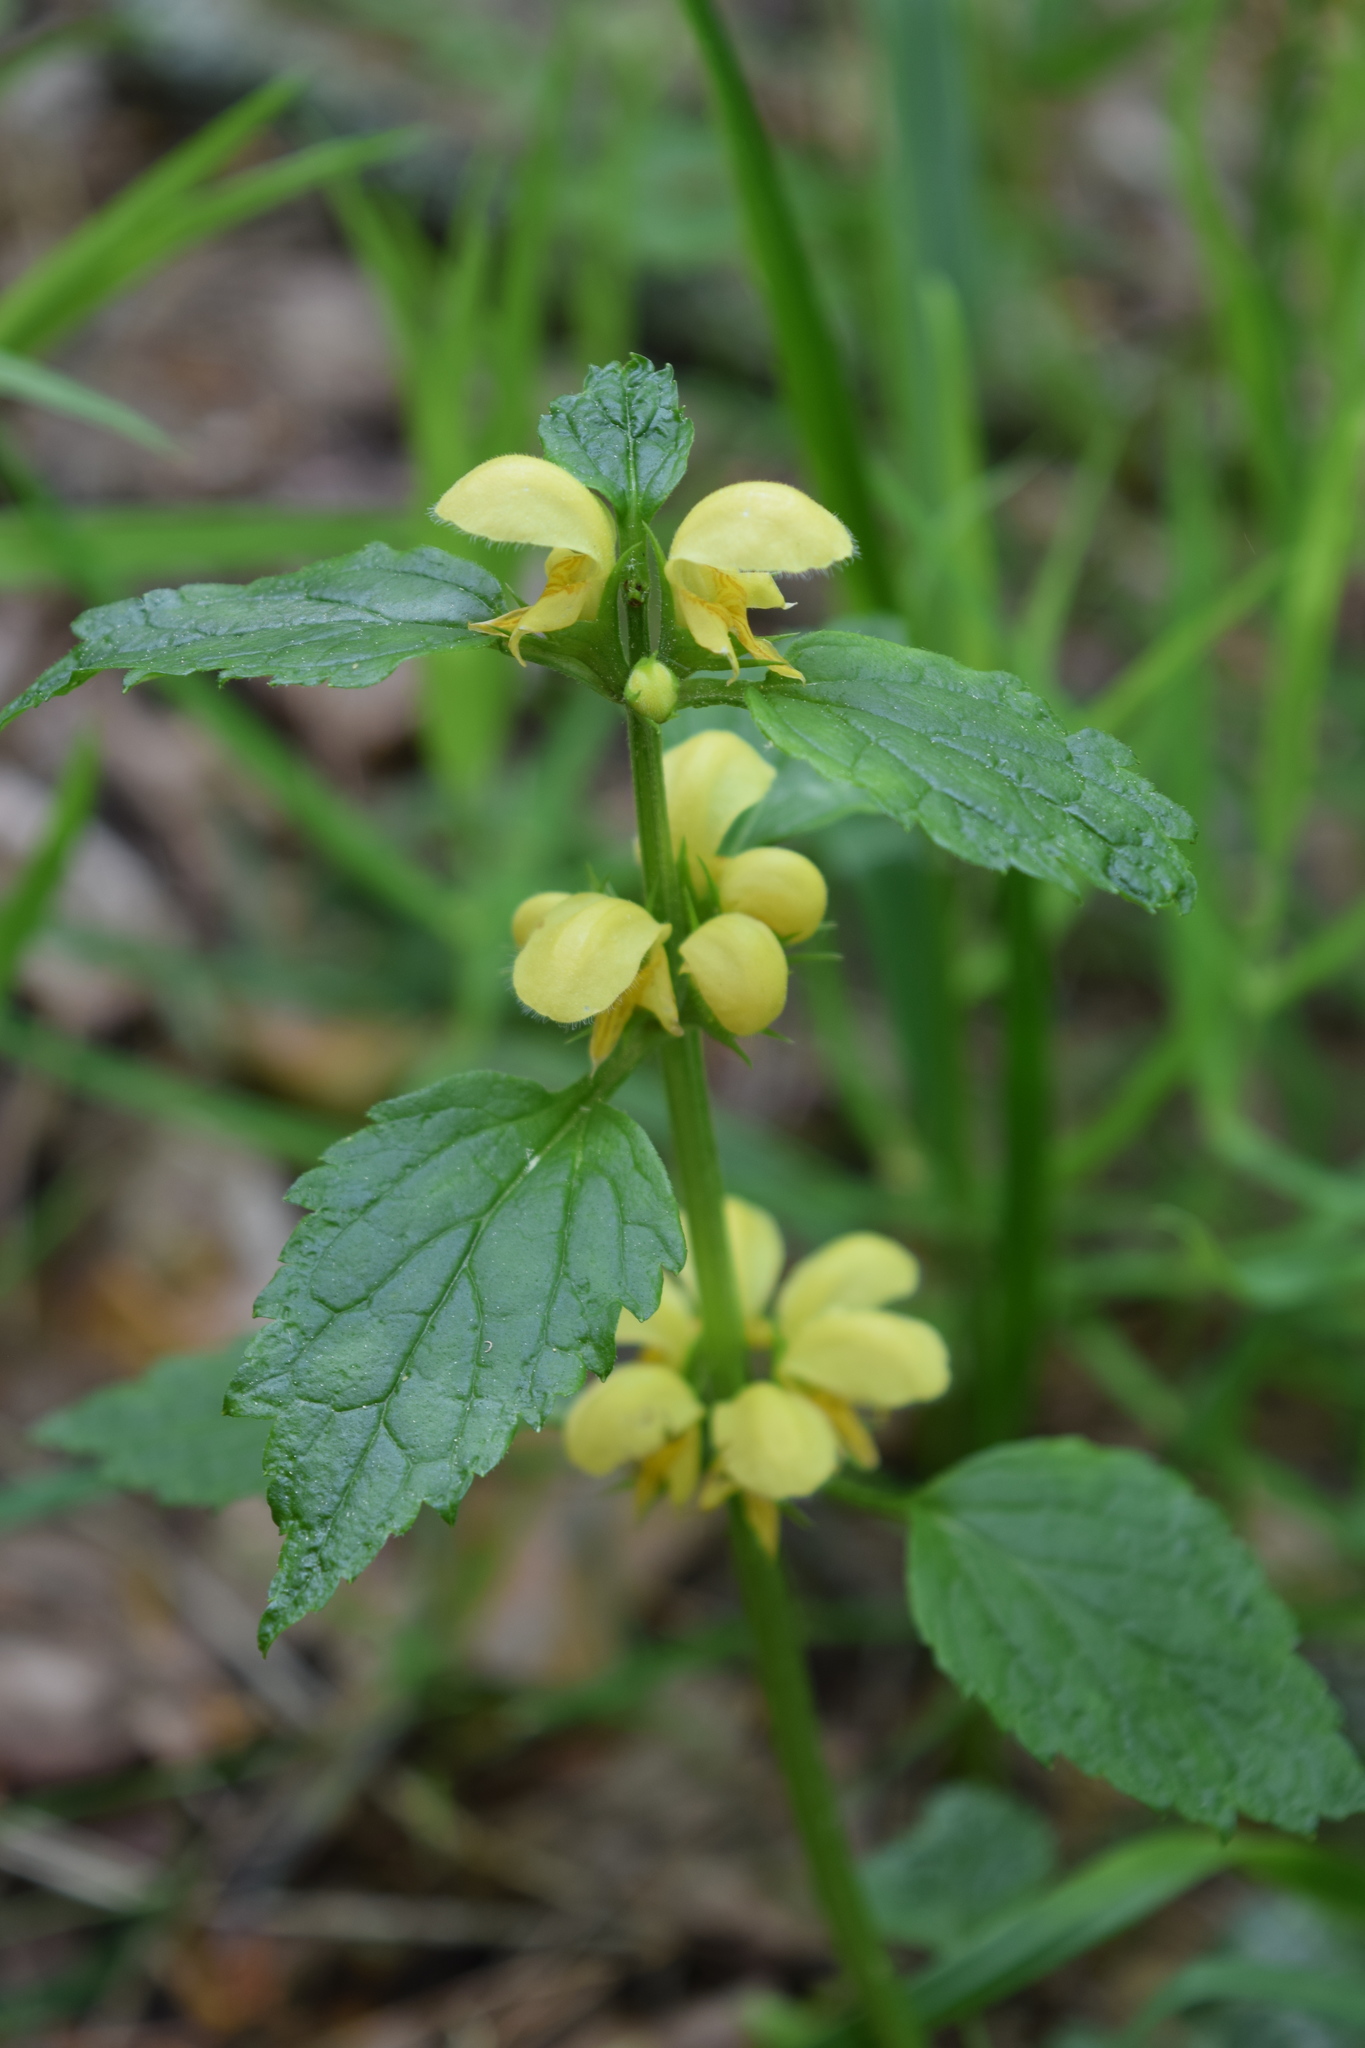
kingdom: Plantae
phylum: Tracheophyta
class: Magnoliopsida
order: Lamiales
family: Lamiaceae
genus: Lamium
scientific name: Lamium galeobdolon
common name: Yellow archangel
